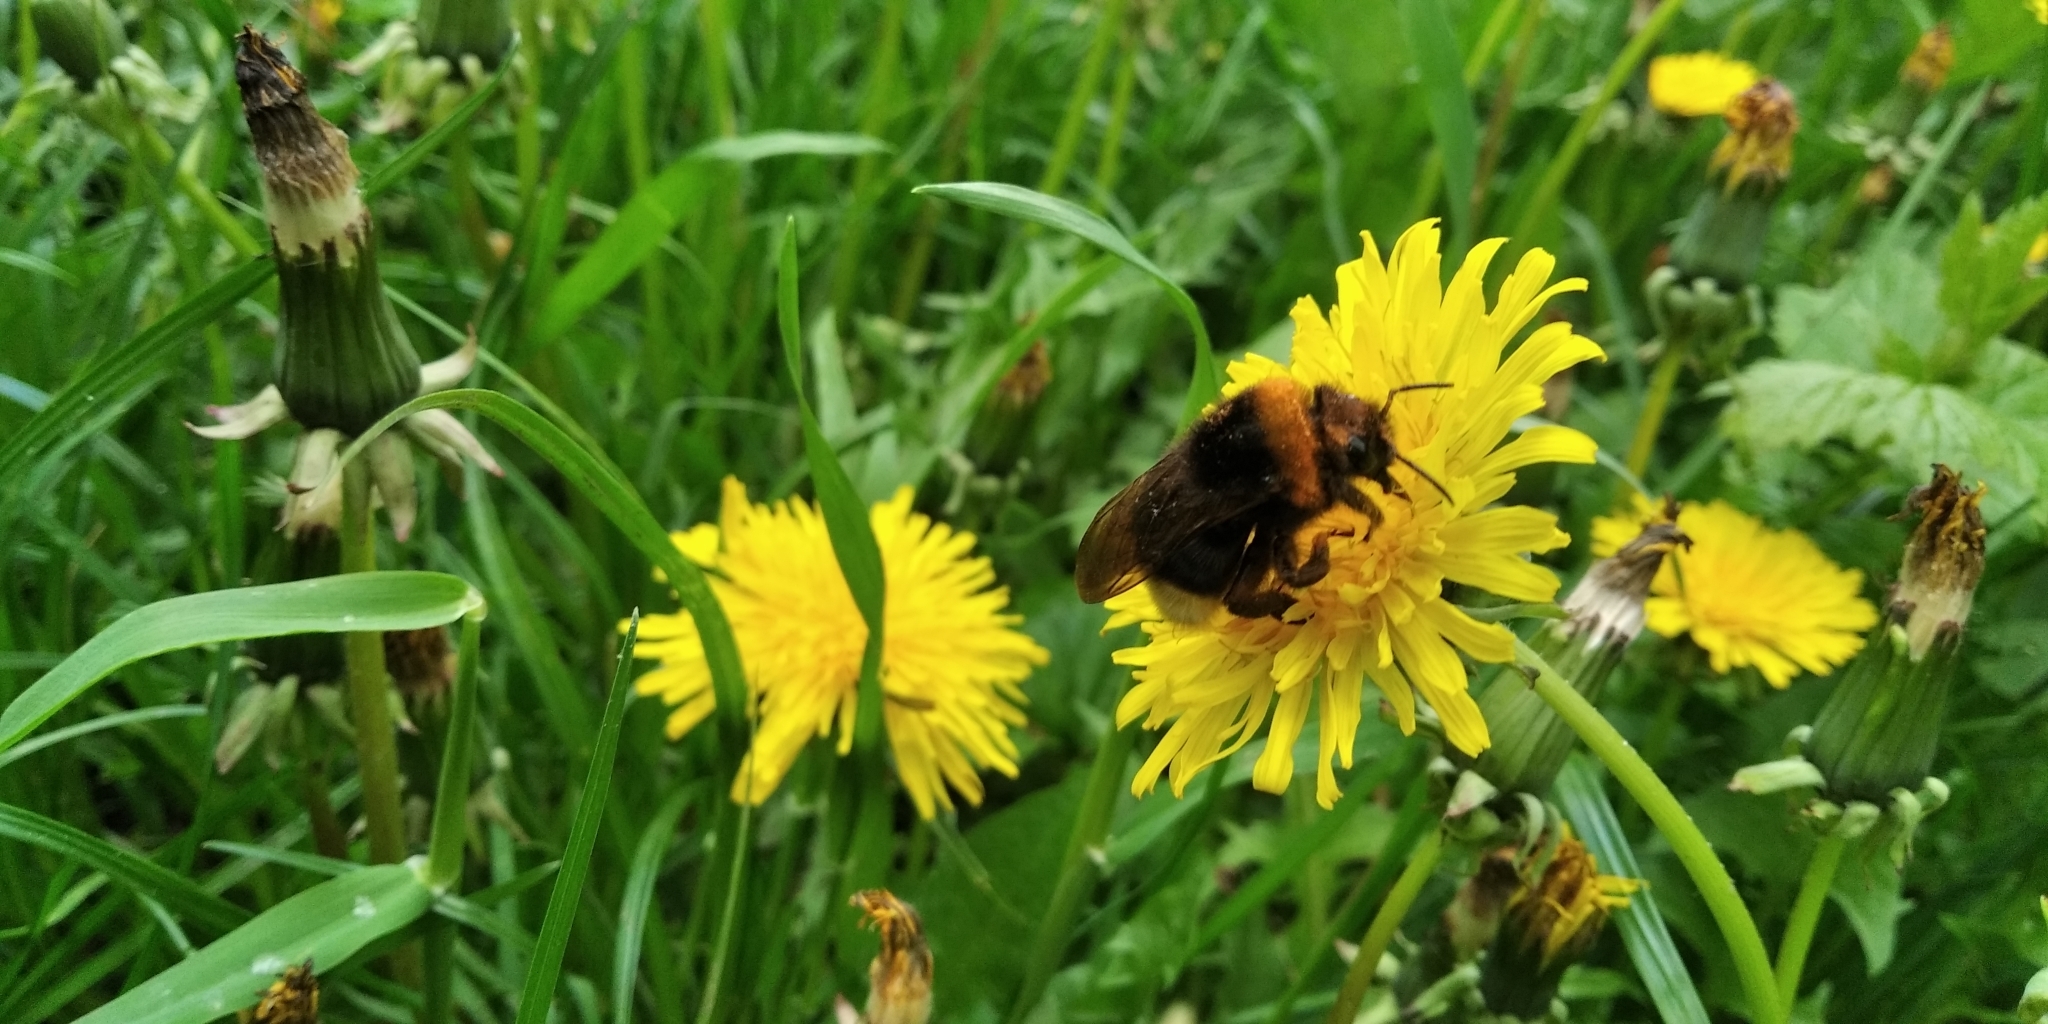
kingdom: Animalia
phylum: Arthropoda
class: Insecta
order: Hymenoptera
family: Apidae
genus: Bombus
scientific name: Bombus vestalis
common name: Vestal cuckoo bee
